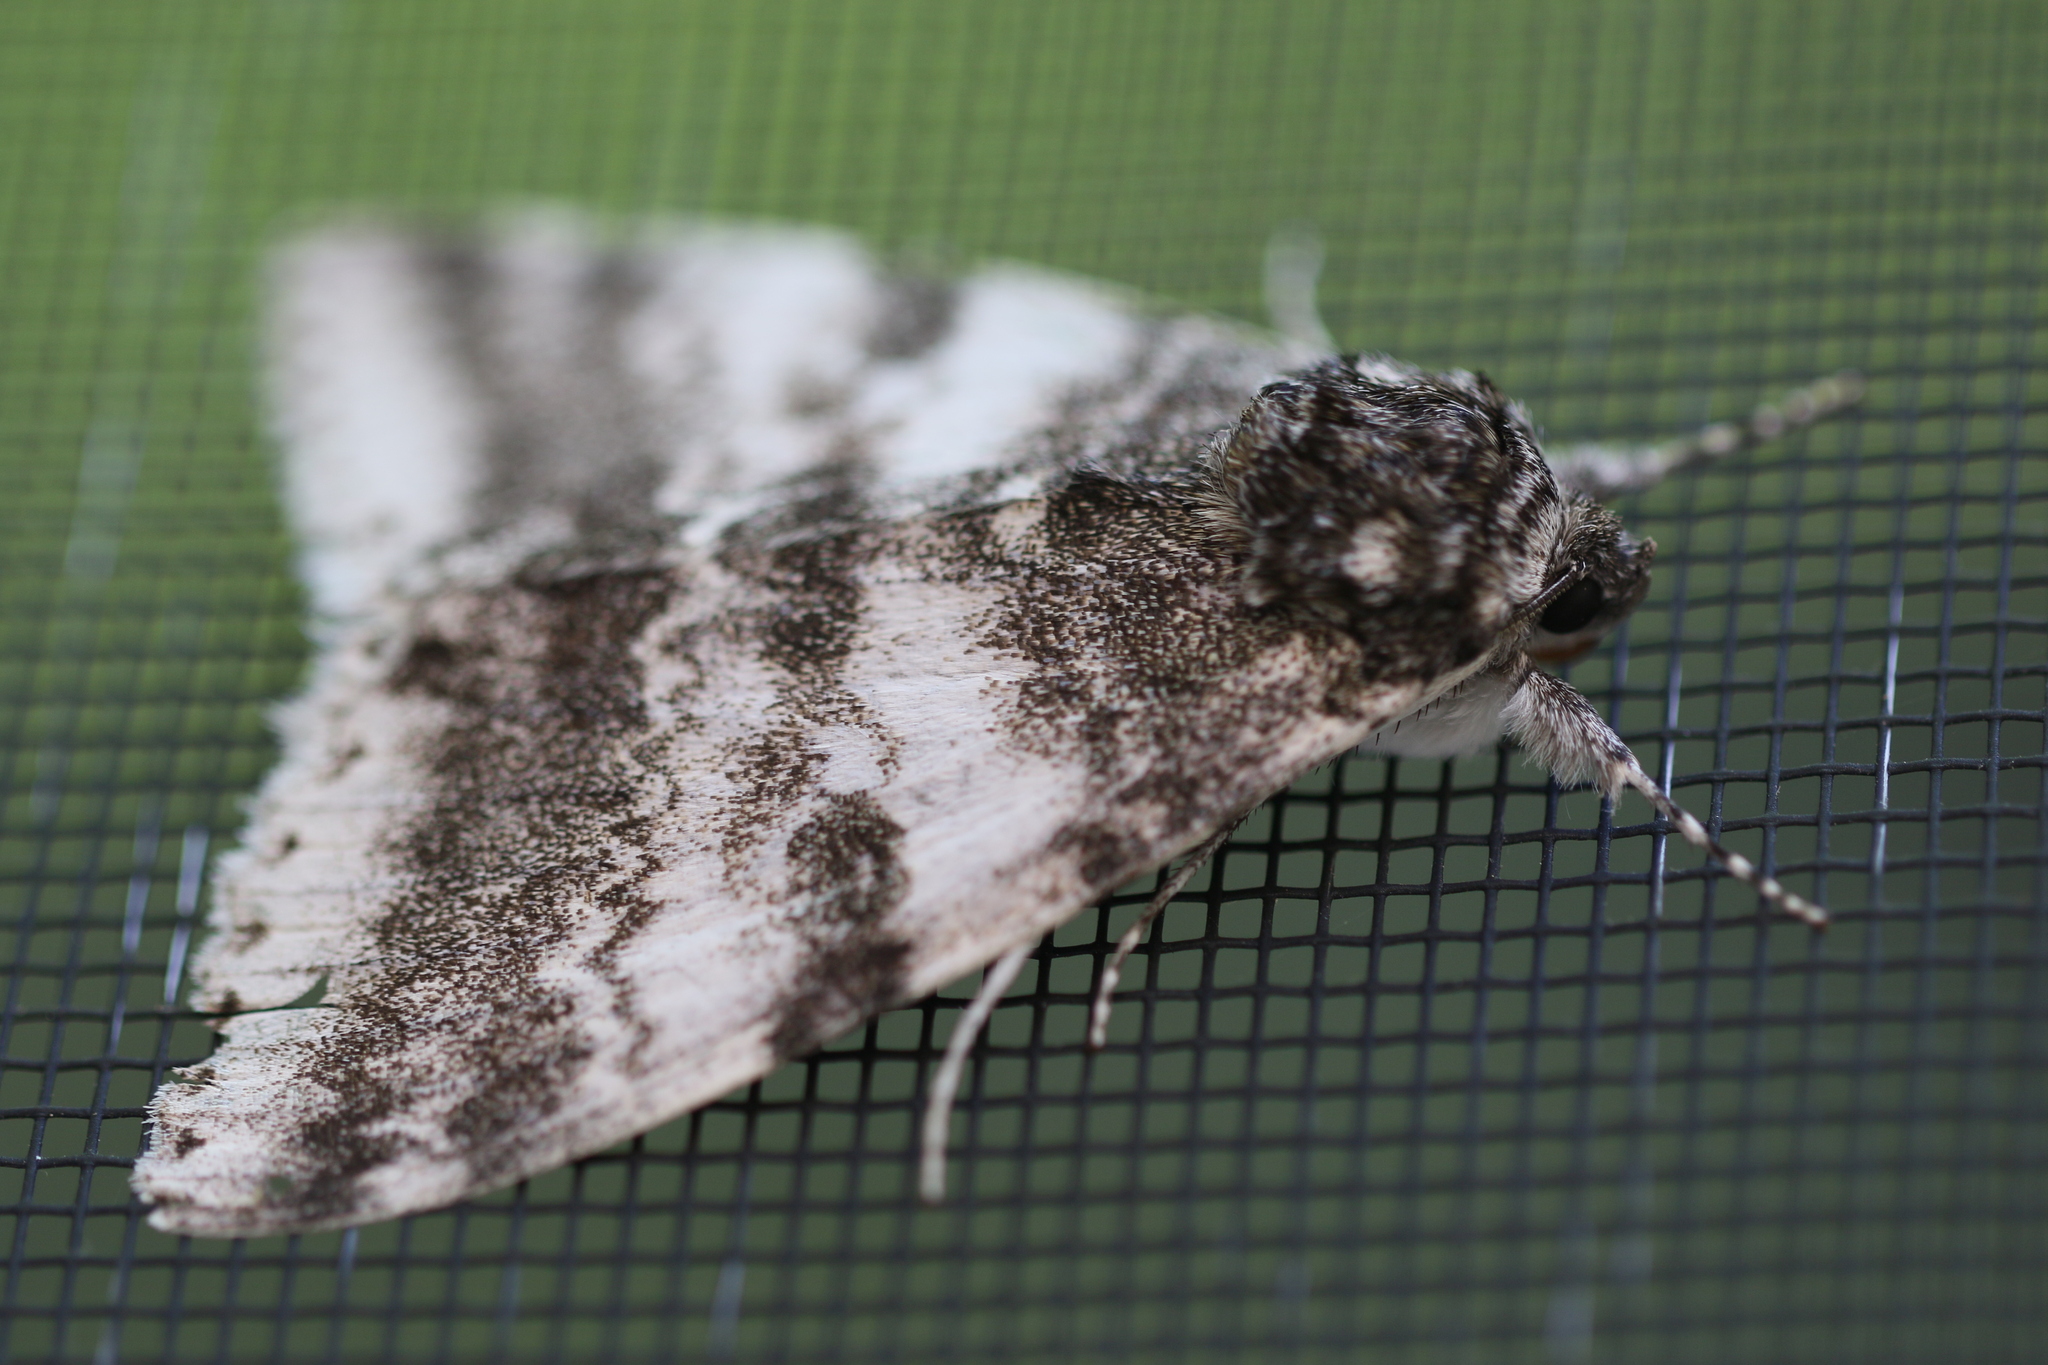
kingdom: Animalia
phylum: Arthropoda
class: Insecta
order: Lepidoptera
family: Erebidae
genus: Catocala
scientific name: Catocala relicta
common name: White underwing
